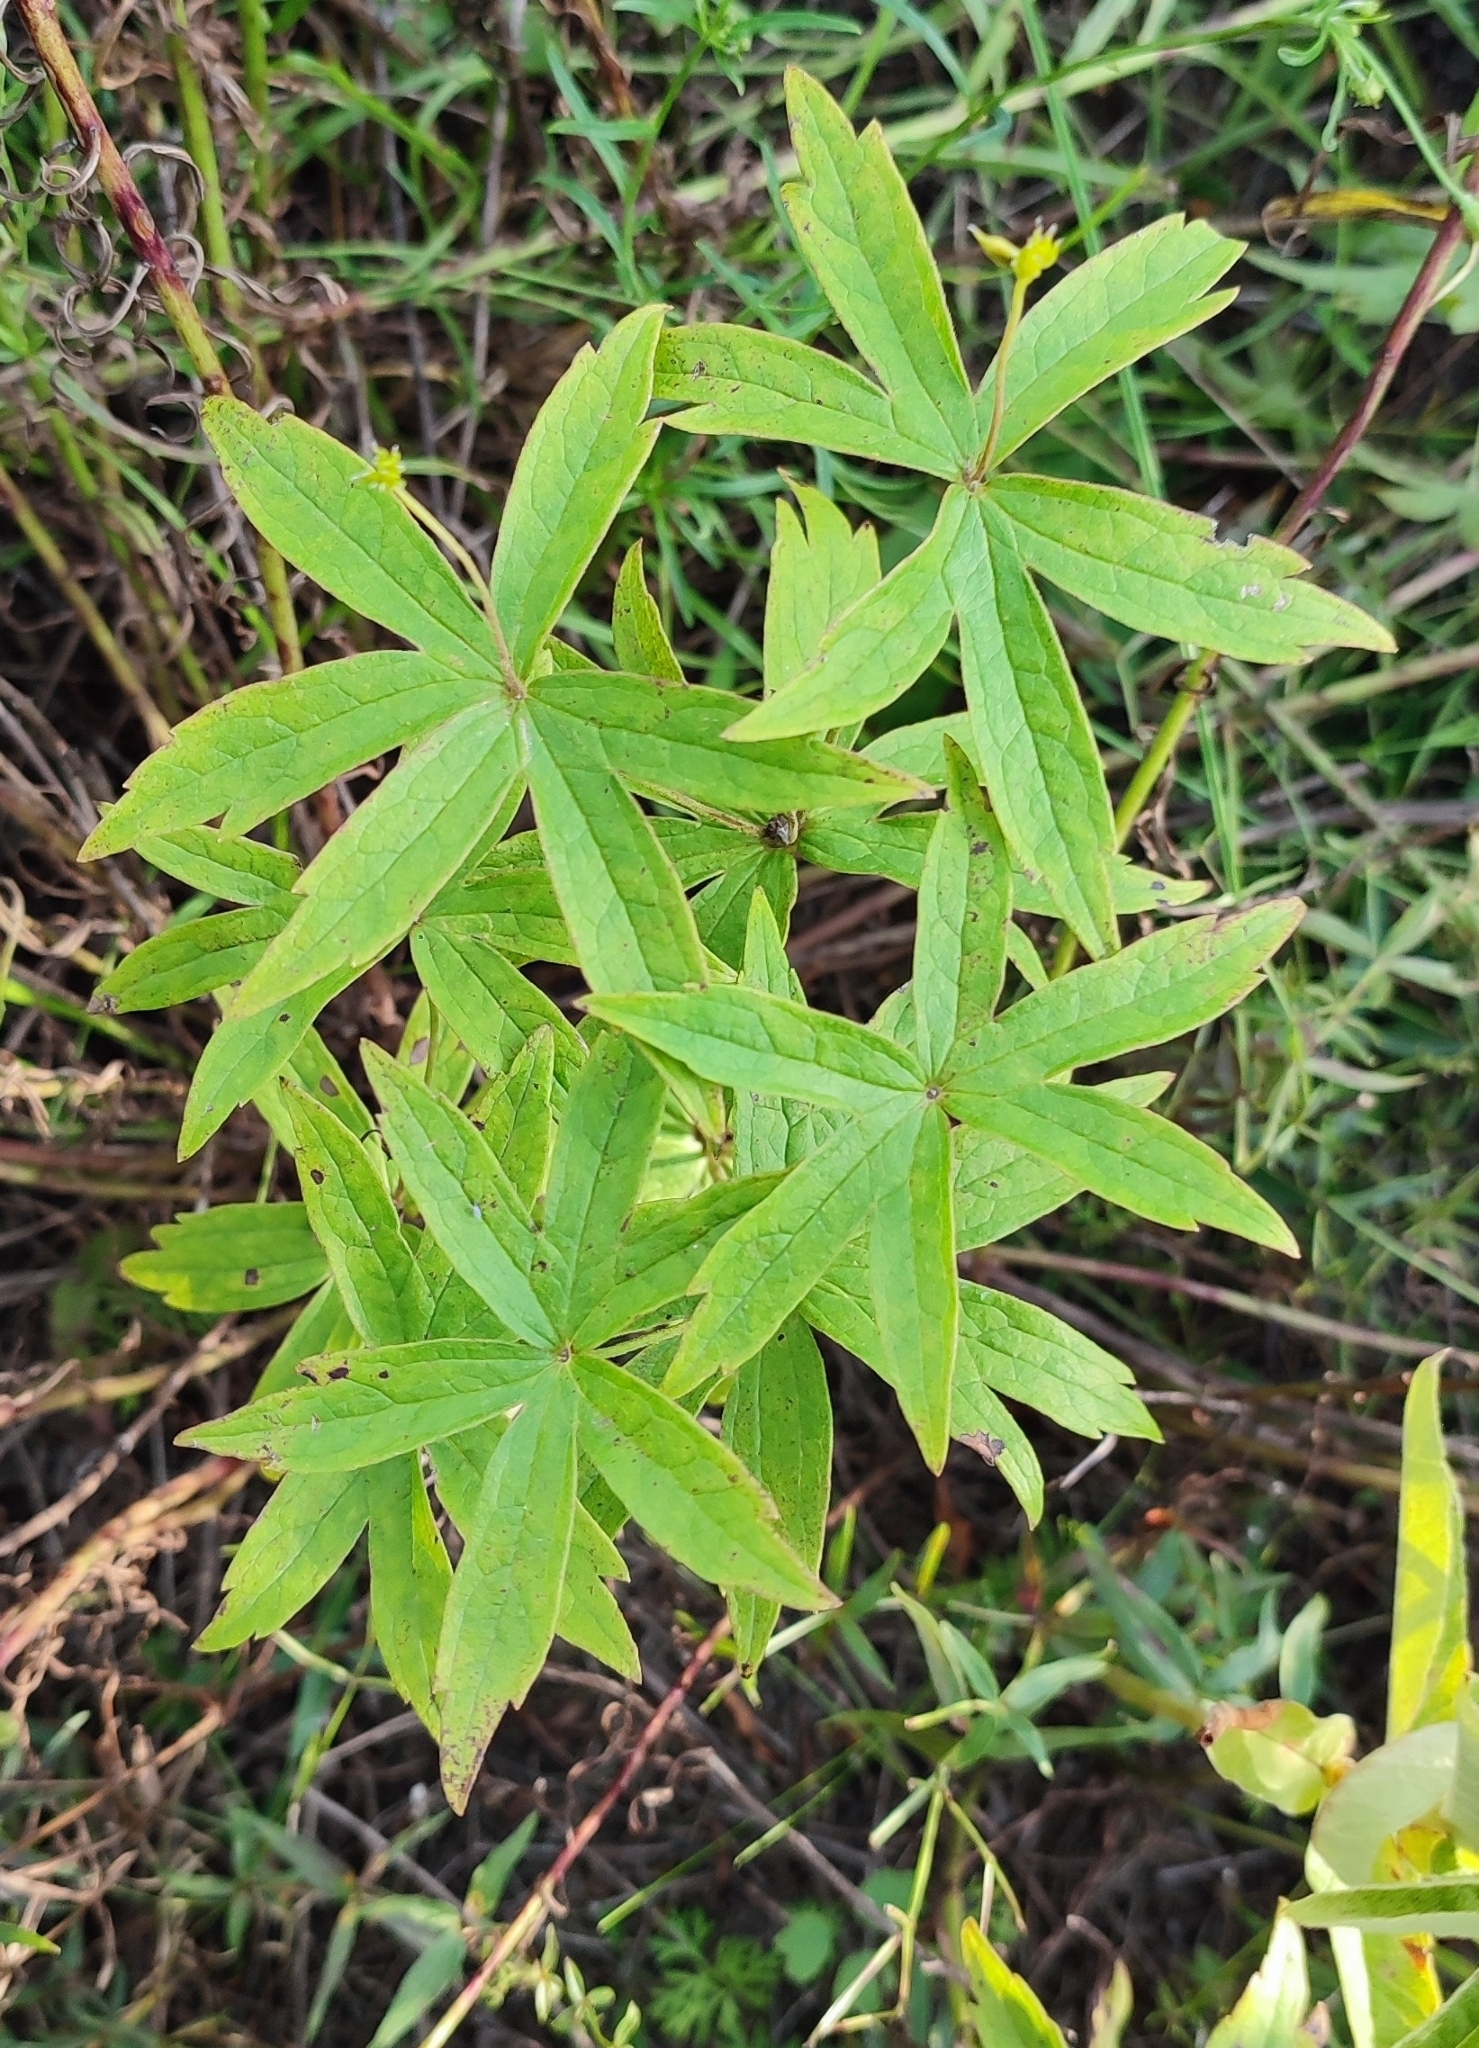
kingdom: Plantae
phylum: Tracheophyta
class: Magnoliopsida
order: Ranunculales
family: Ranunculaceae
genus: Anemonastrum
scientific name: Anemonastrum dichotomum
